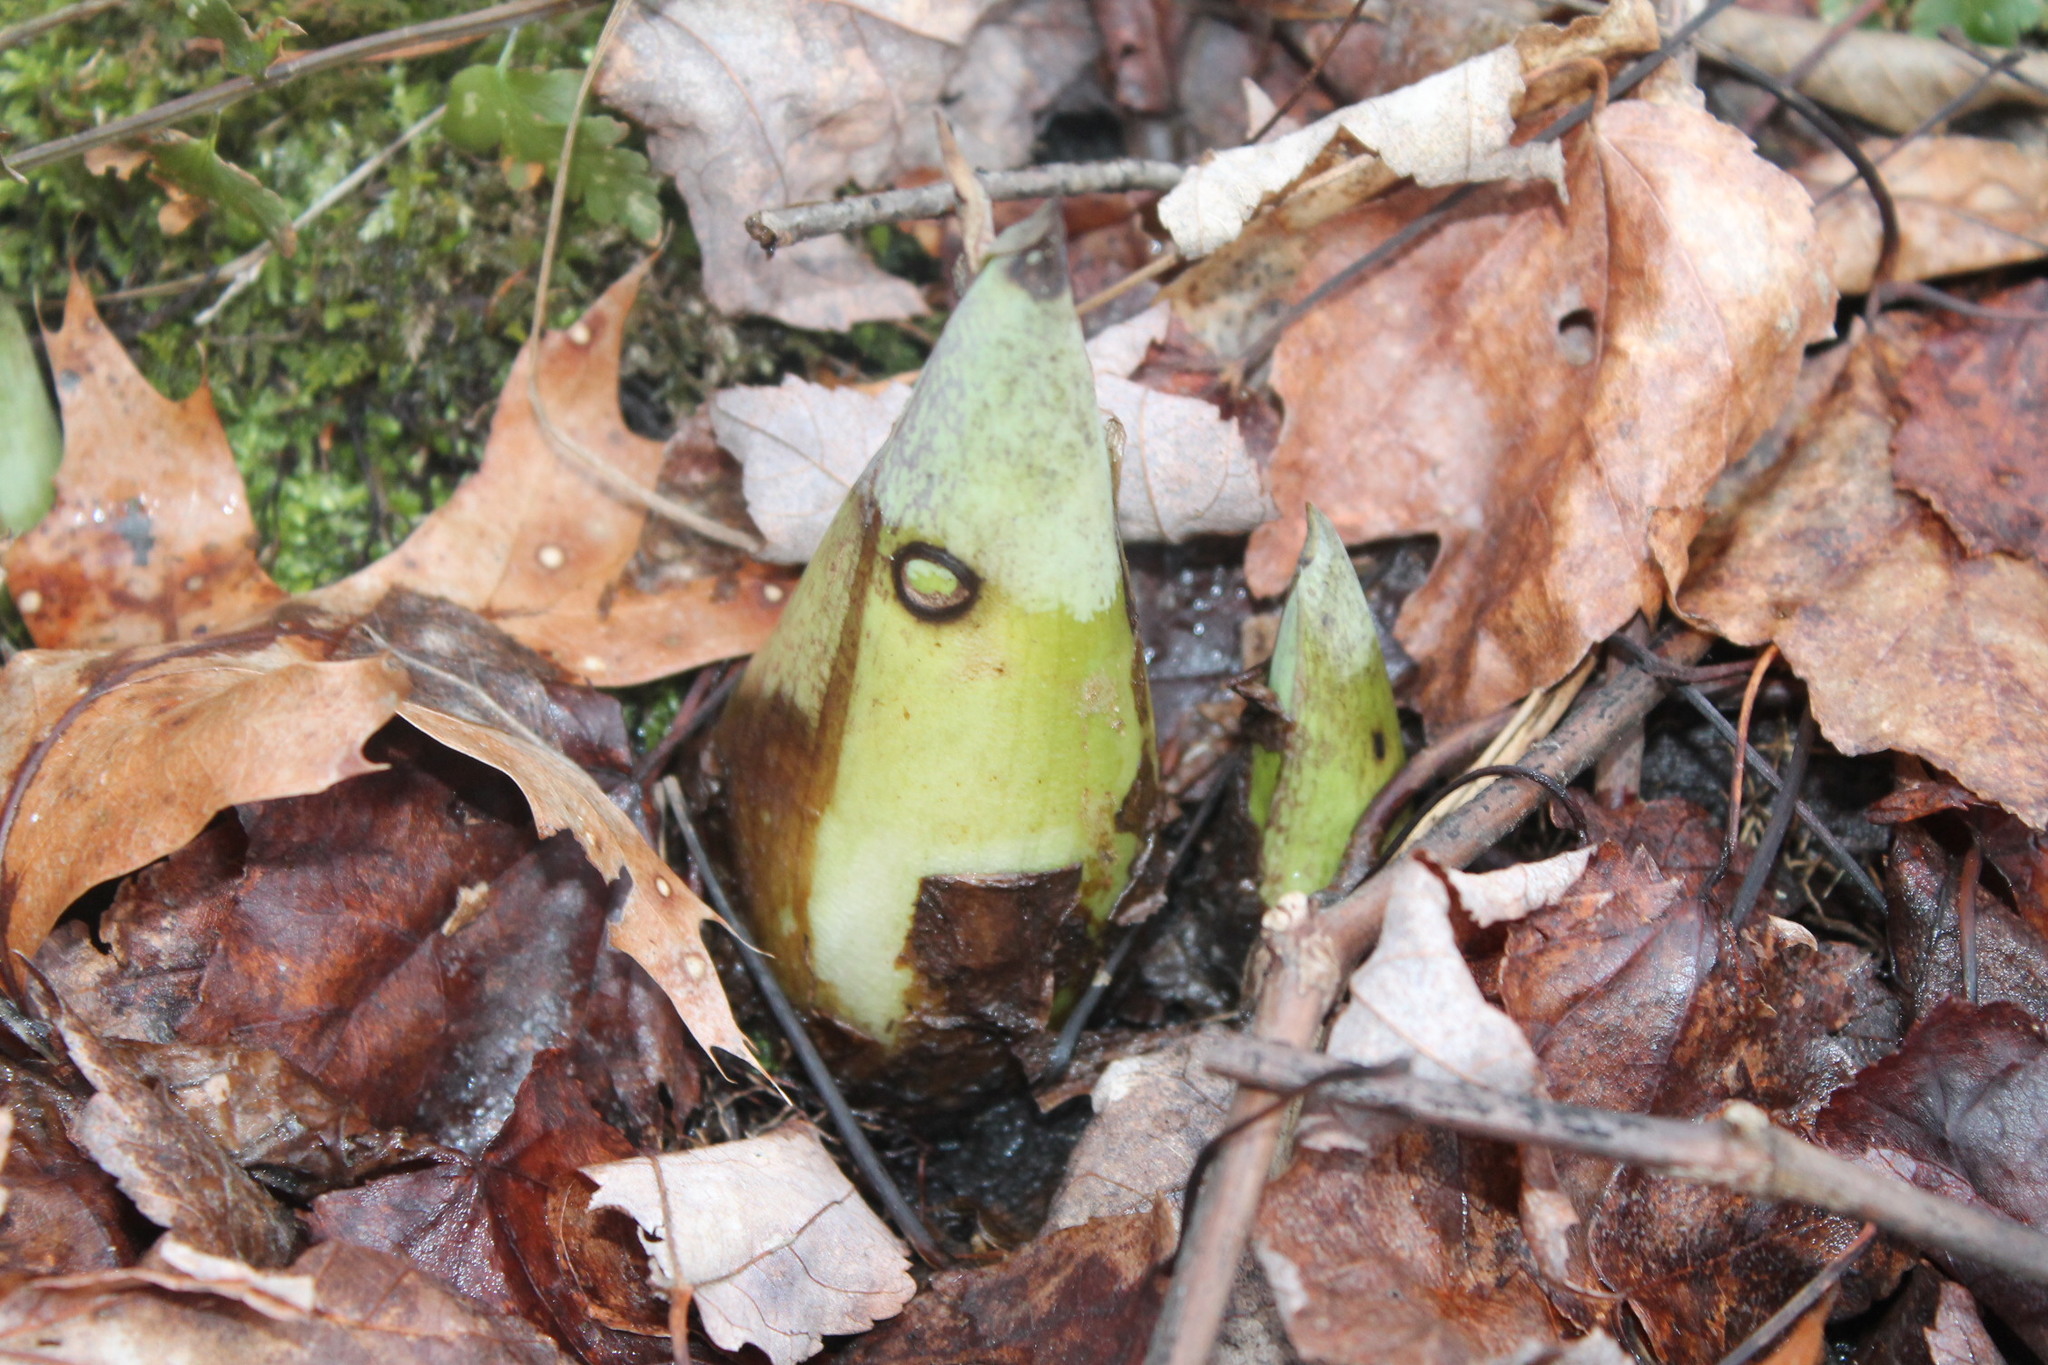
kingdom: Plantae
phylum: Tracheophyta
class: Liliopsida
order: Alismatales
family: Araceae
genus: Symplocarpus
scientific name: Symplocarpus foetidus
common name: Eastern skunk cabbage
